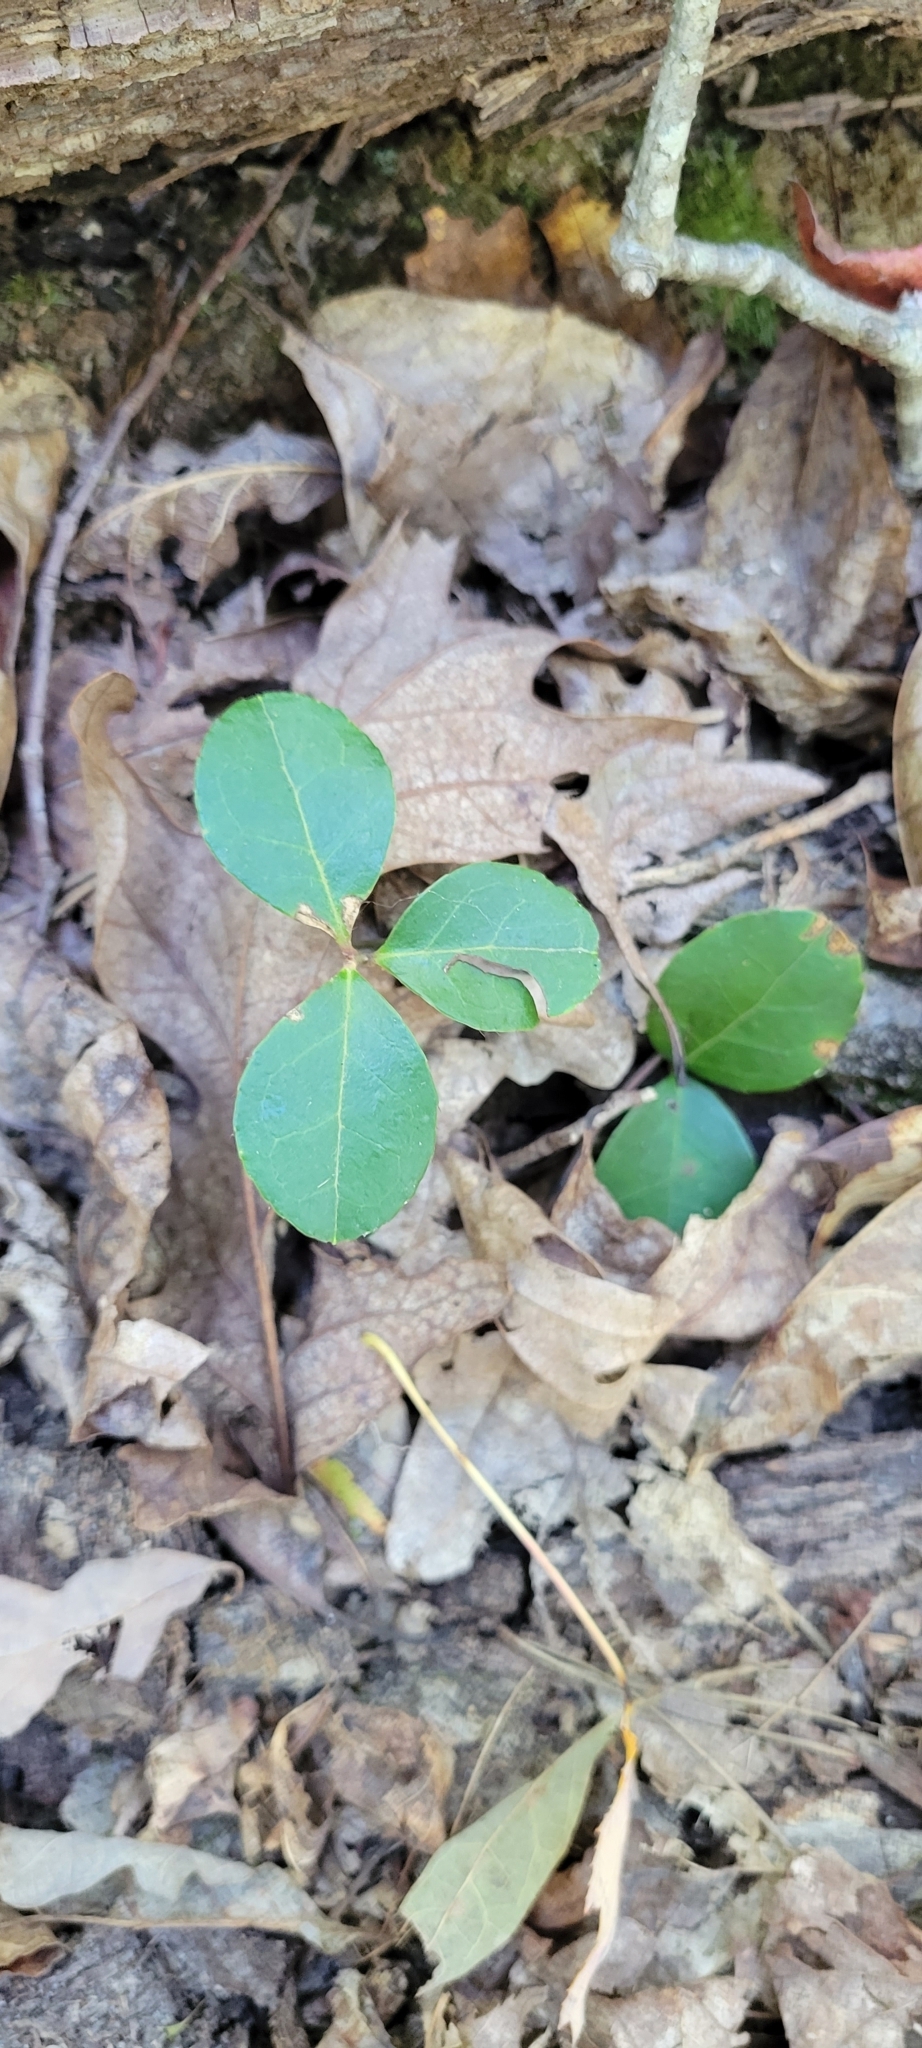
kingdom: Plantae
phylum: Tracheophyta
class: Magnoliopsida
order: Ericales
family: Ericaceae
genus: Gaultheria
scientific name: Gaultheria procumbens
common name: Checkerberry
